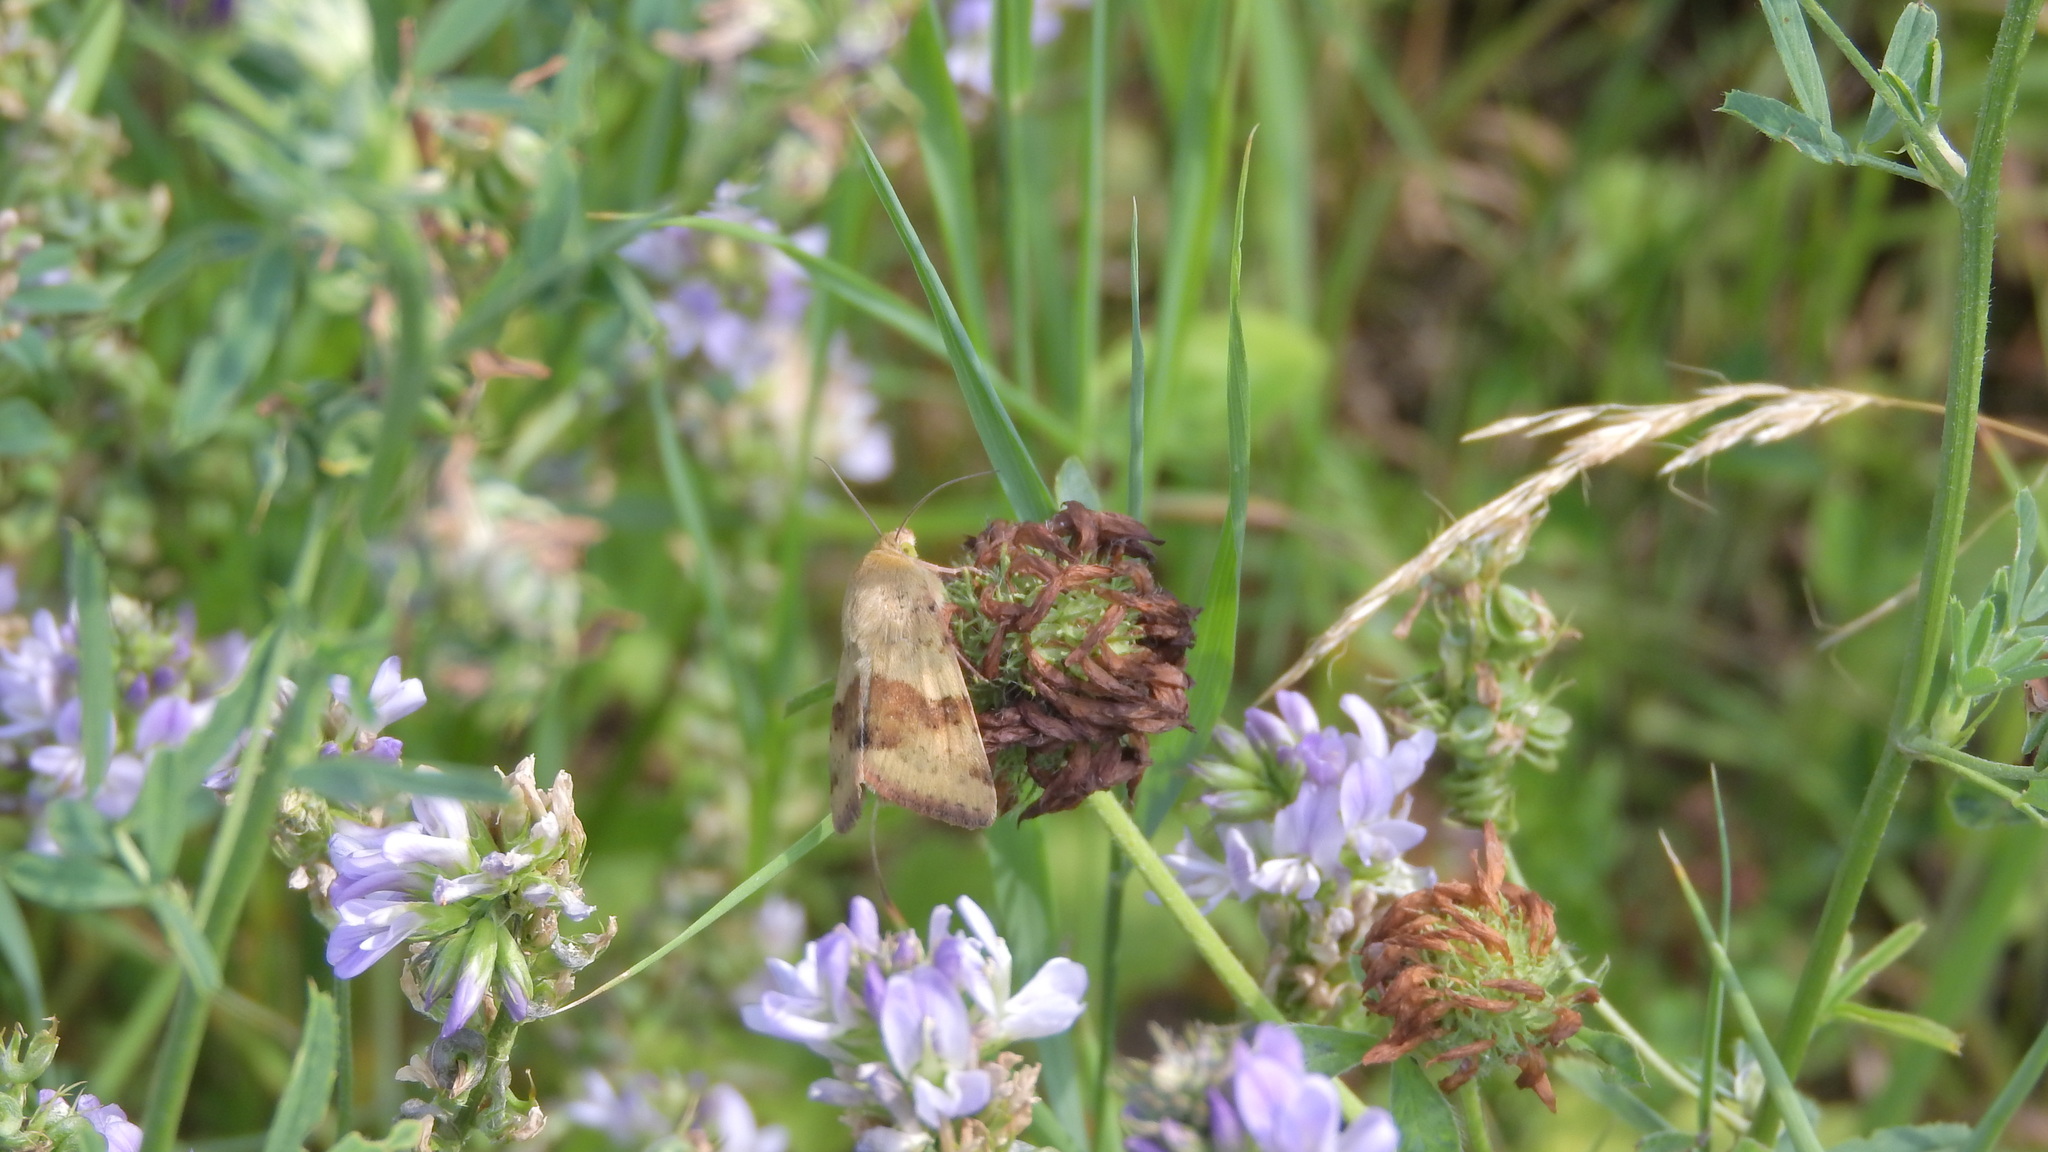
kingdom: Animalia
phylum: Arthropoda
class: Insecta
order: Lepidoptera
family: Noctuidae
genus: Heliothis
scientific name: Heliothis viriplaca
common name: Marbled clover
